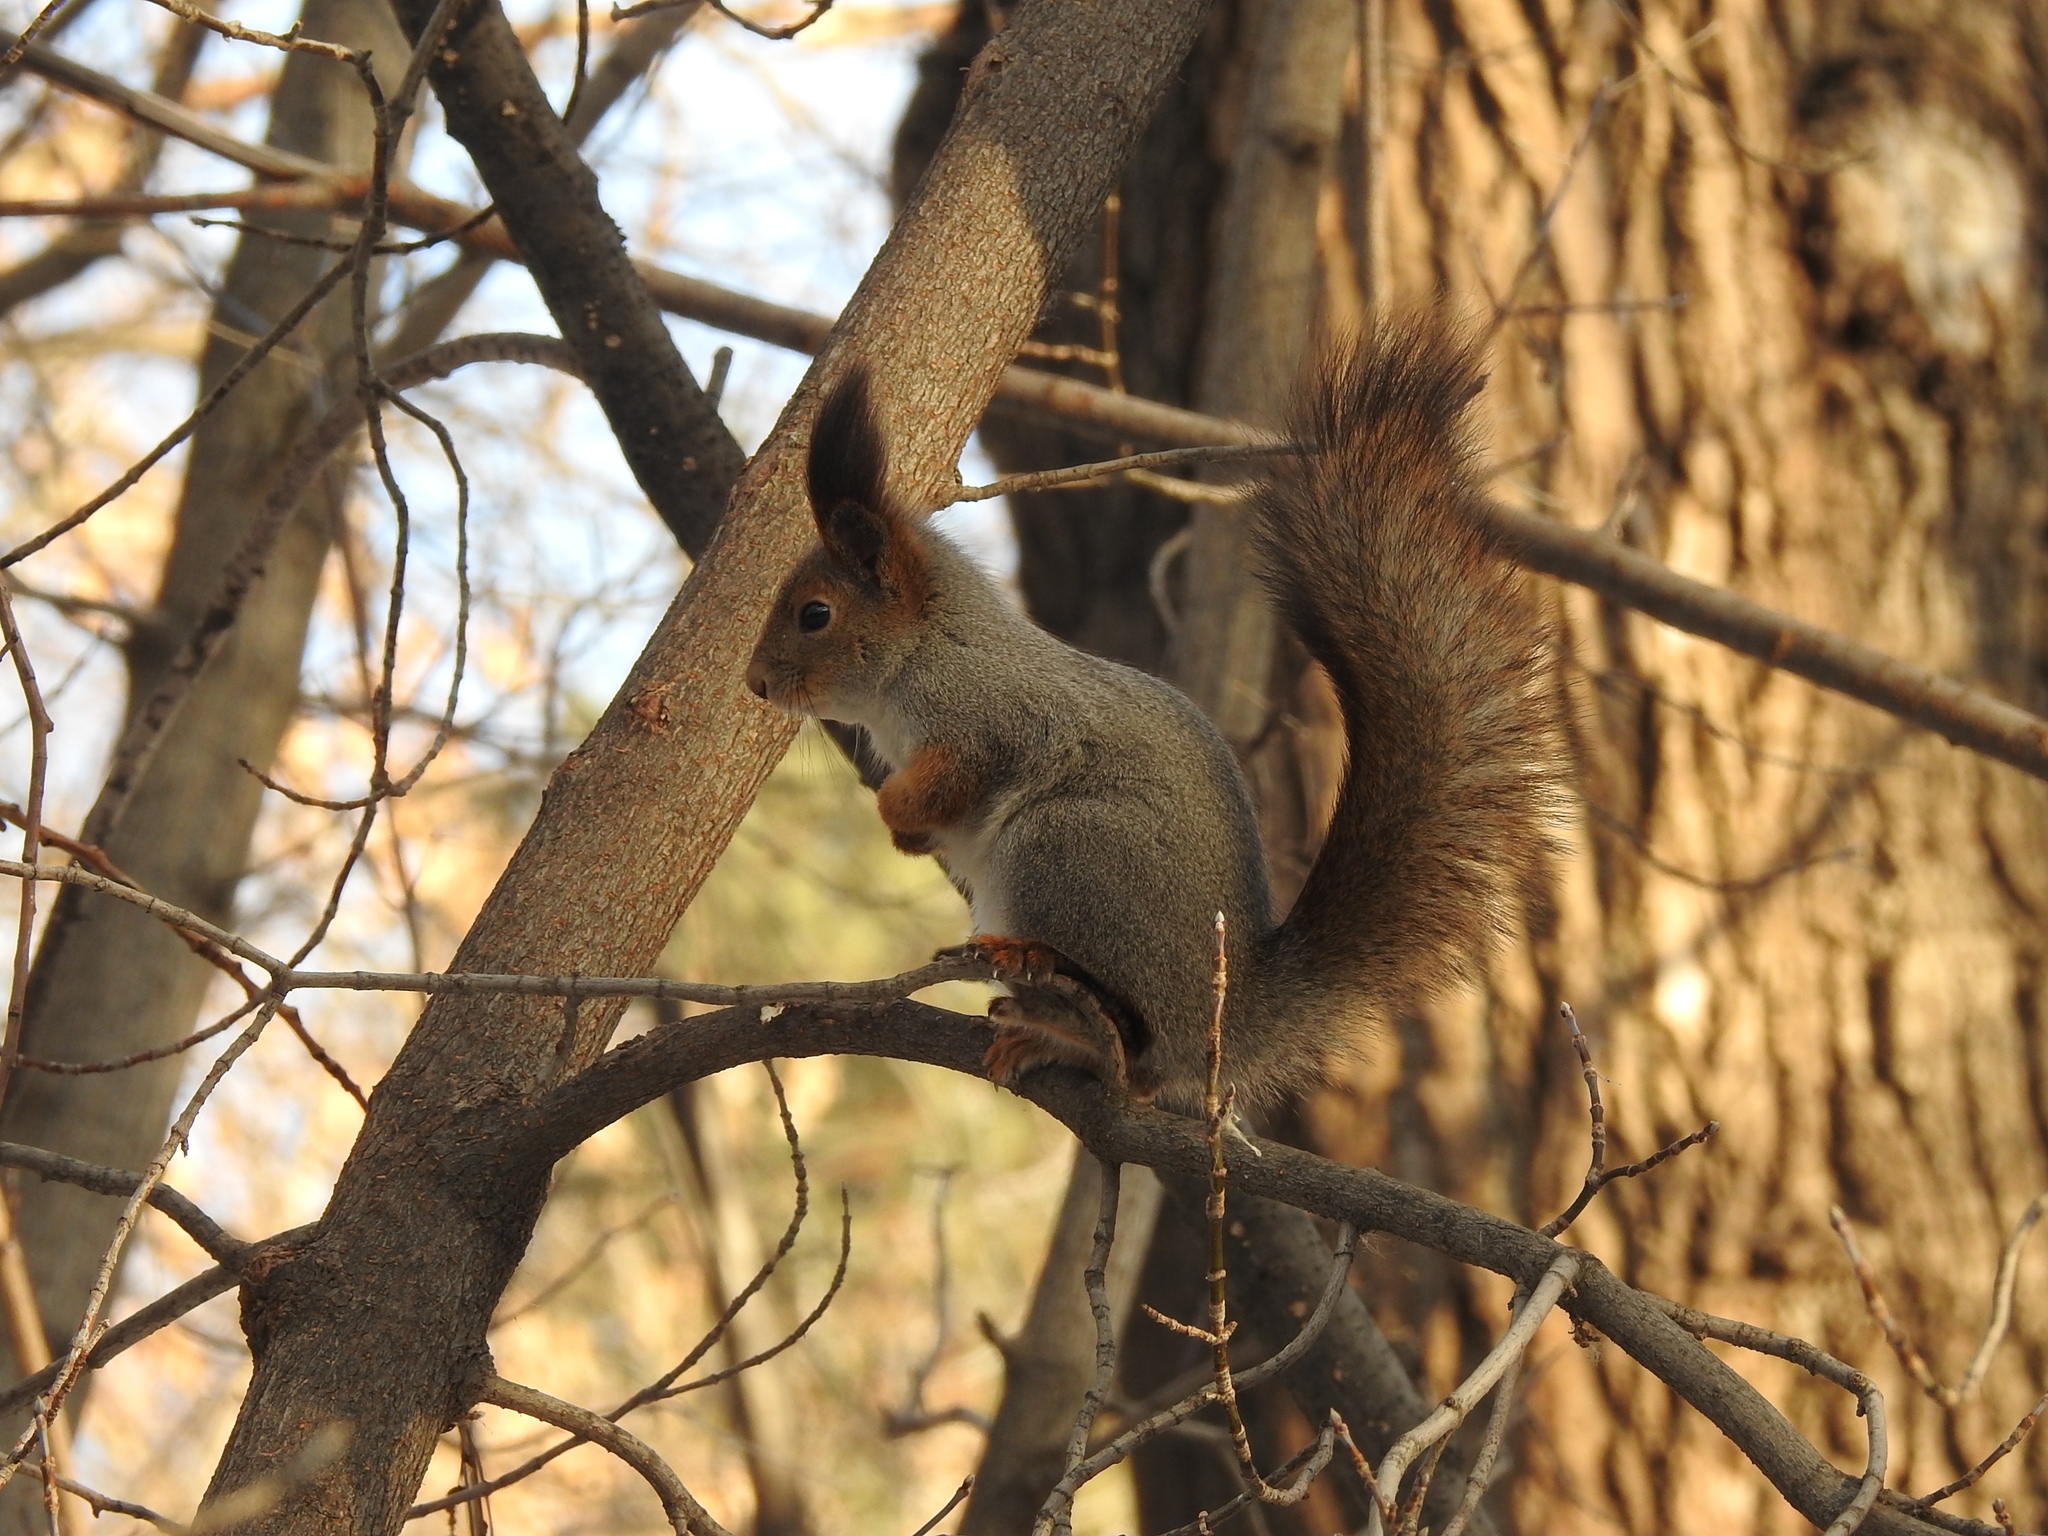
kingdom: Animalia
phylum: Chordata
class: Mammalia
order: Rodentia
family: Sciuridae
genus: Sciurus
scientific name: Sciurus vulgaris
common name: Eurasian red squirrel
